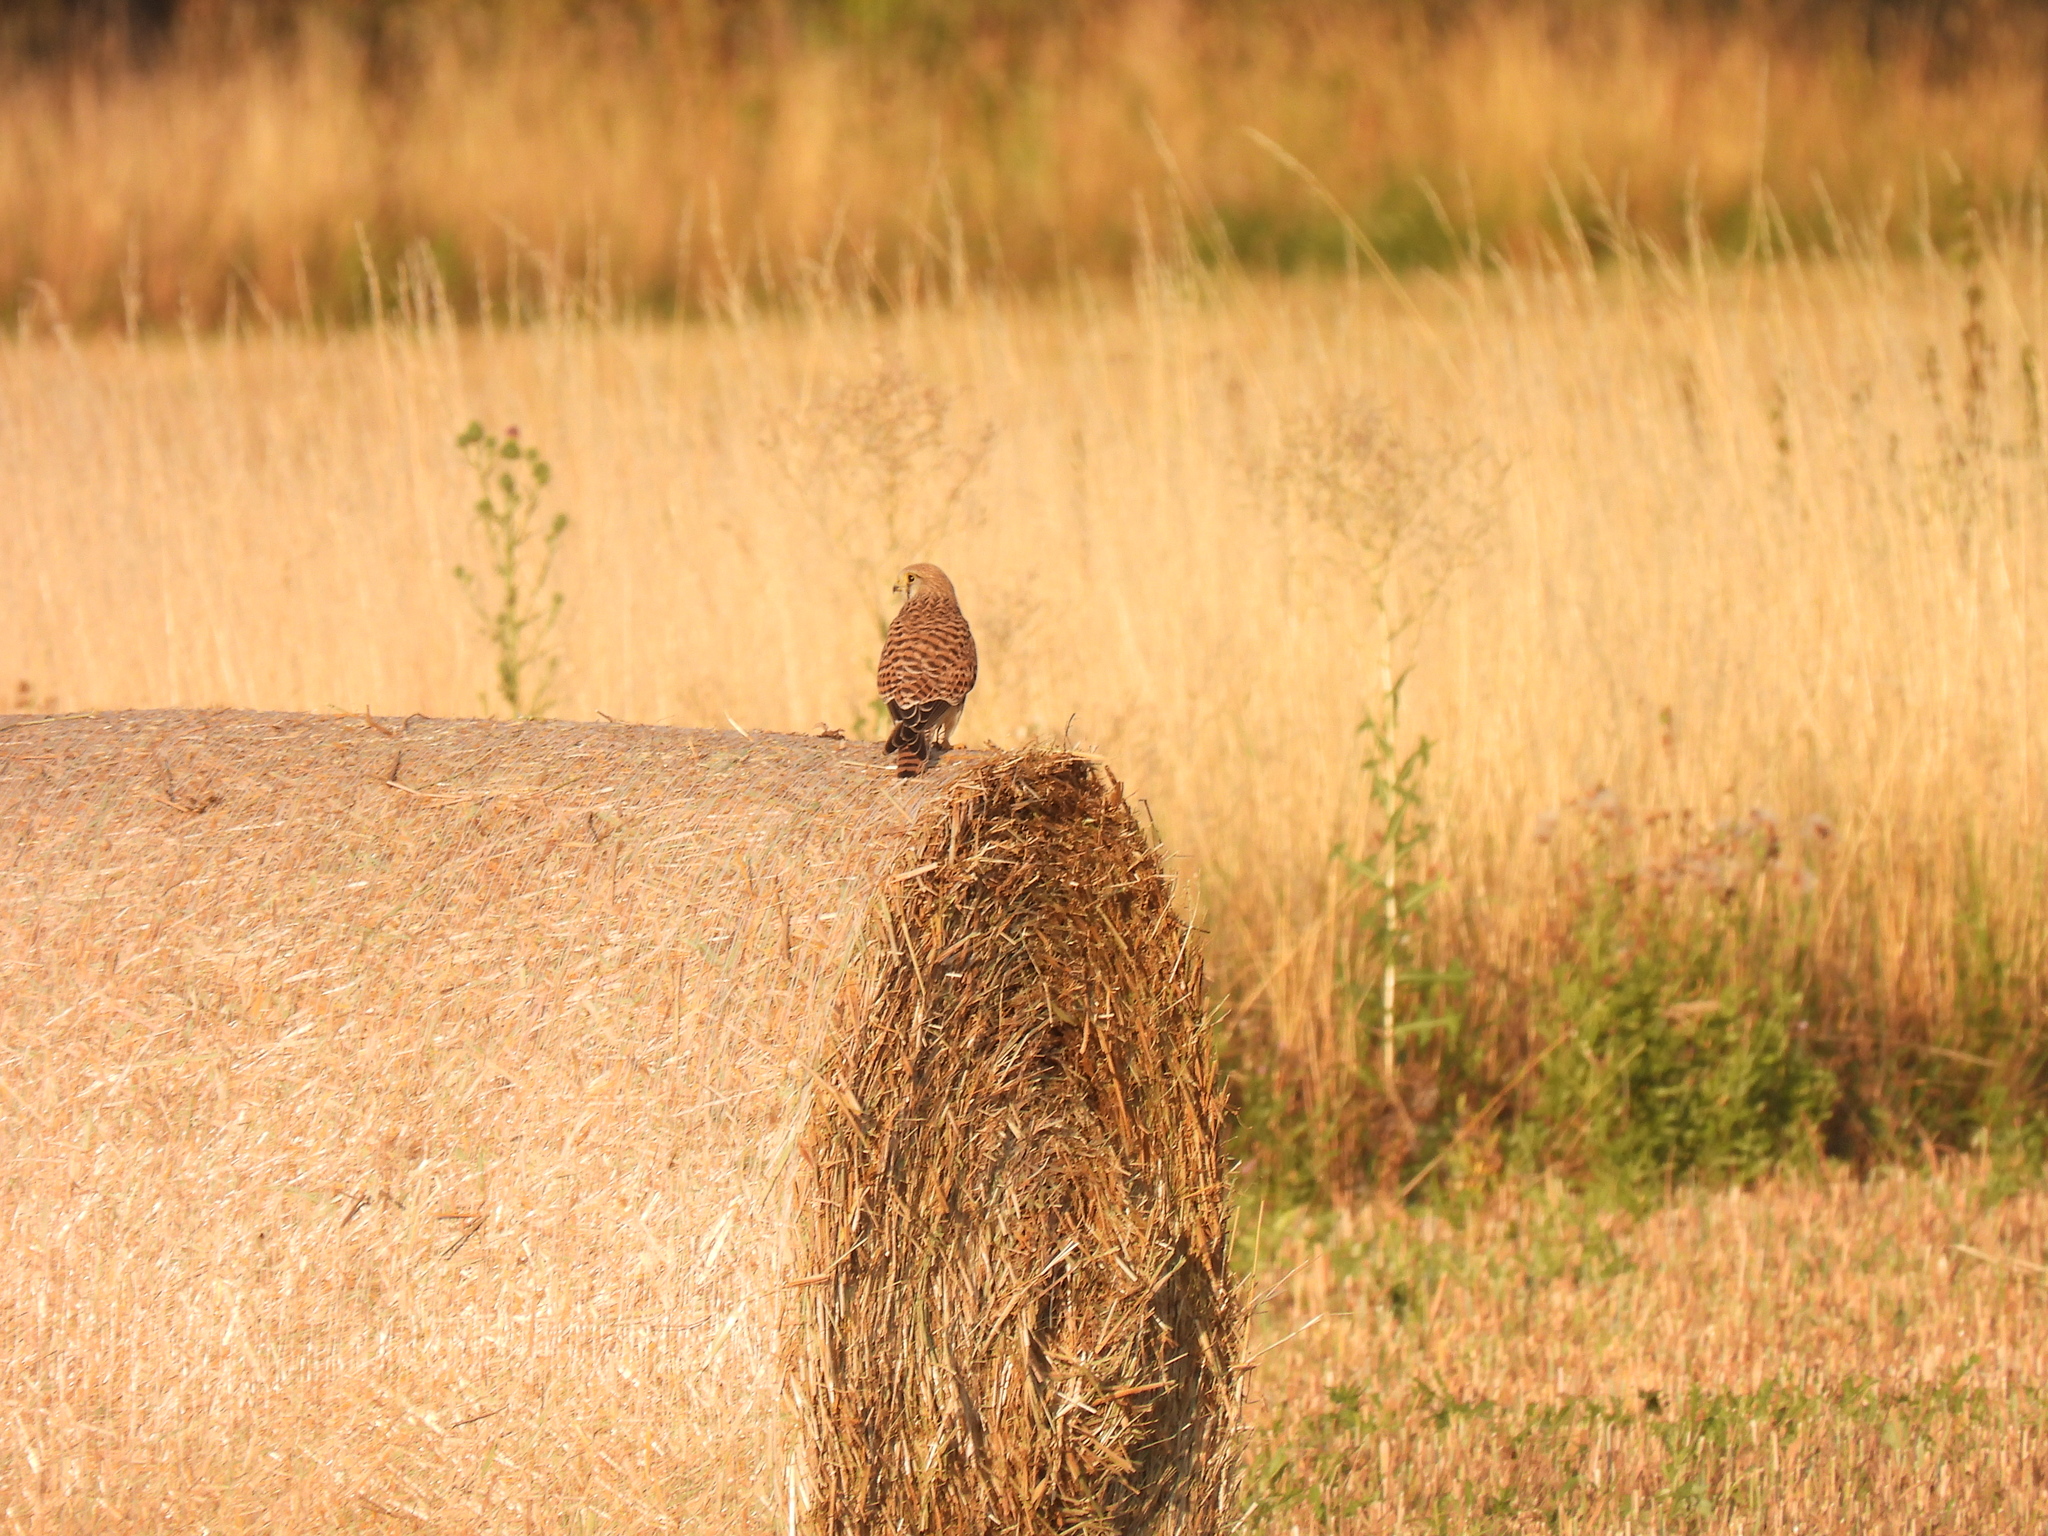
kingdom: Animalia
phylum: Chordata
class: Aves
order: Falconiformes
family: Falconidae
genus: Falco
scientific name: Falco tinnunculus
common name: Common kestrel
